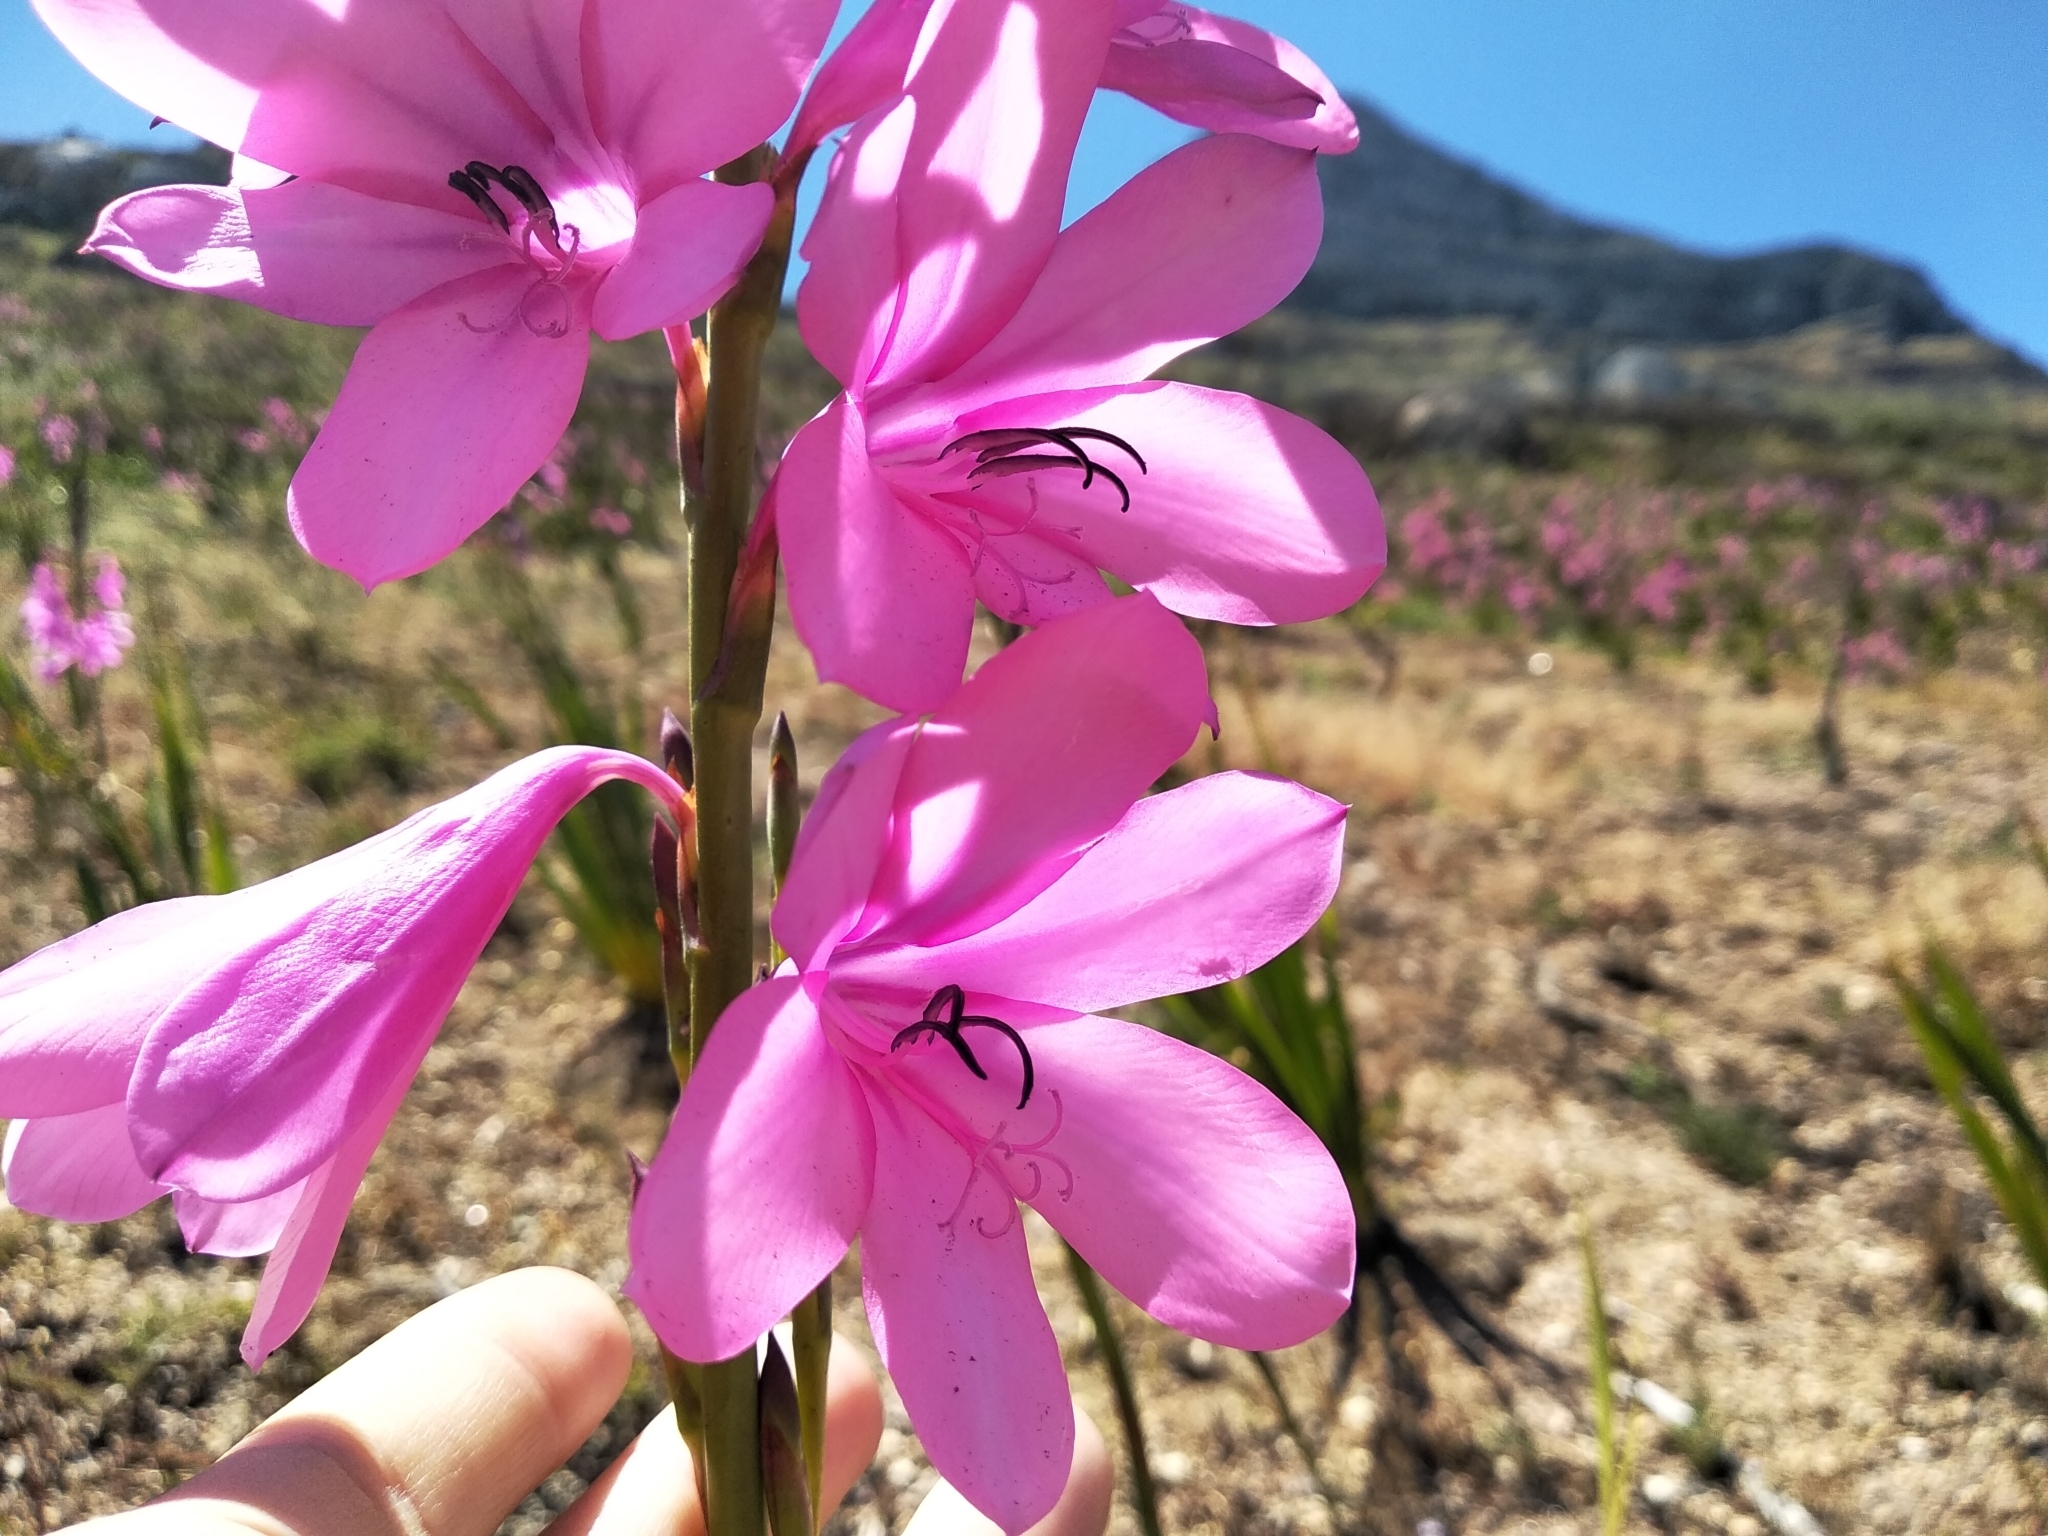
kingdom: Plantae
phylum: Tracheophyta
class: Liliopsida
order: Asparagales
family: Iridaceae
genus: Watsonia
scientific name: Watsonia borbonica
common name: Bugle-lily
